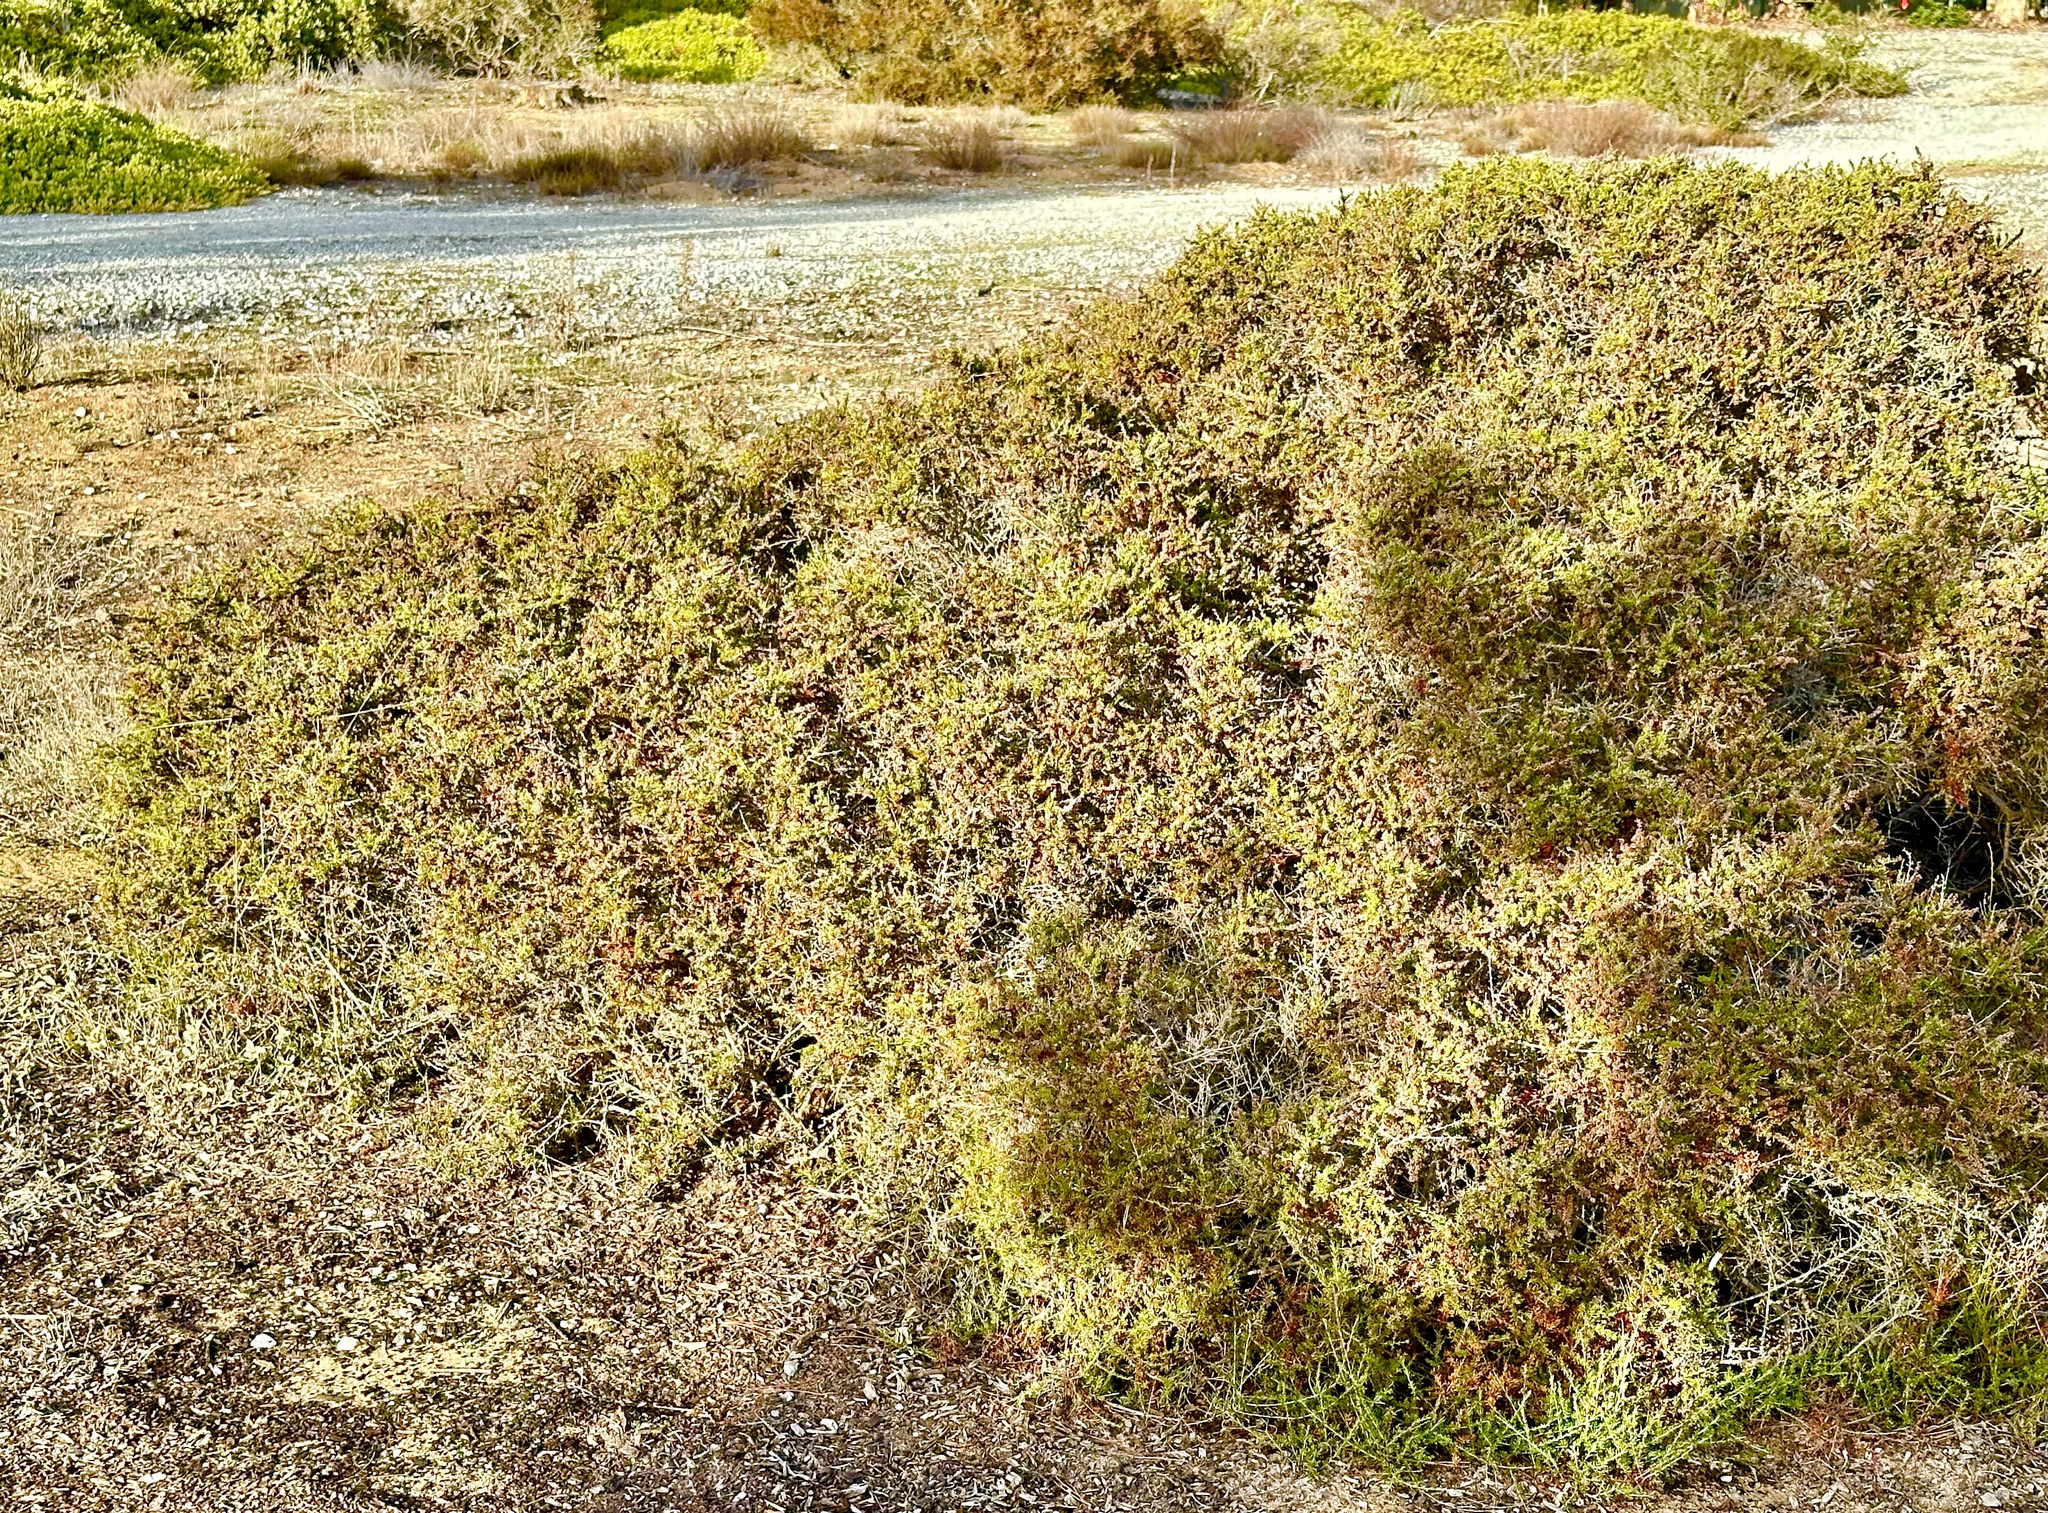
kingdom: Plantae
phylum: Tracheophyta
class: Magnoliopsida
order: Rosales
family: Rosaceae
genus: Adenostoma
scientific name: Adenostoma fasciculatum
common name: Chamise
